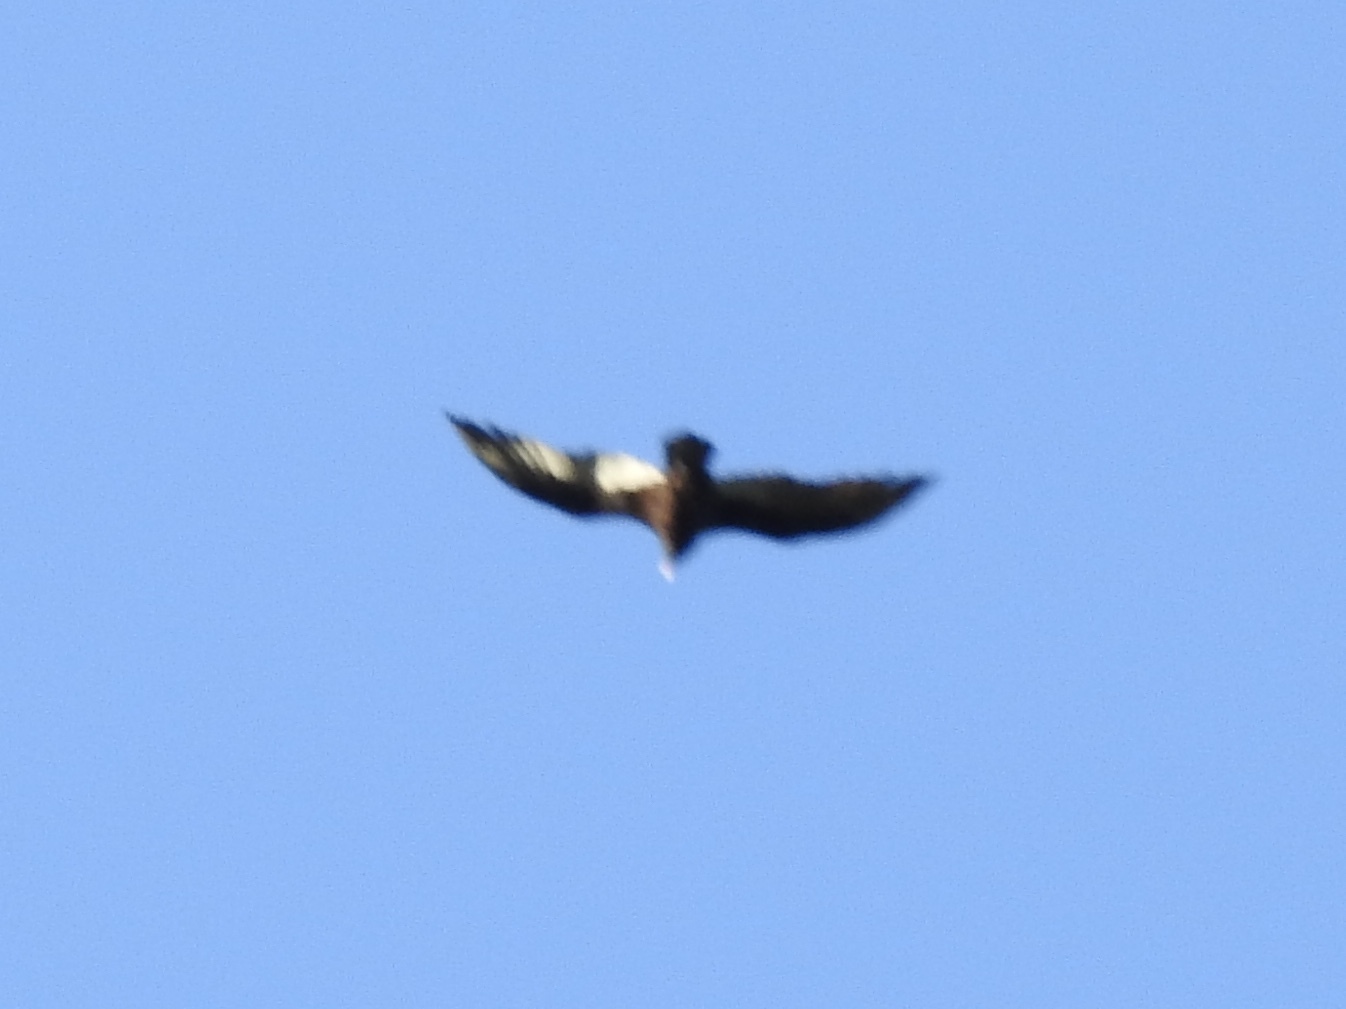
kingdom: Animalia
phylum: Chordata
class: Aves
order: Accipitriformes
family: Cathartidae
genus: Cathartes
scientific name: Cathartes aura
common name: Turkey vulture
